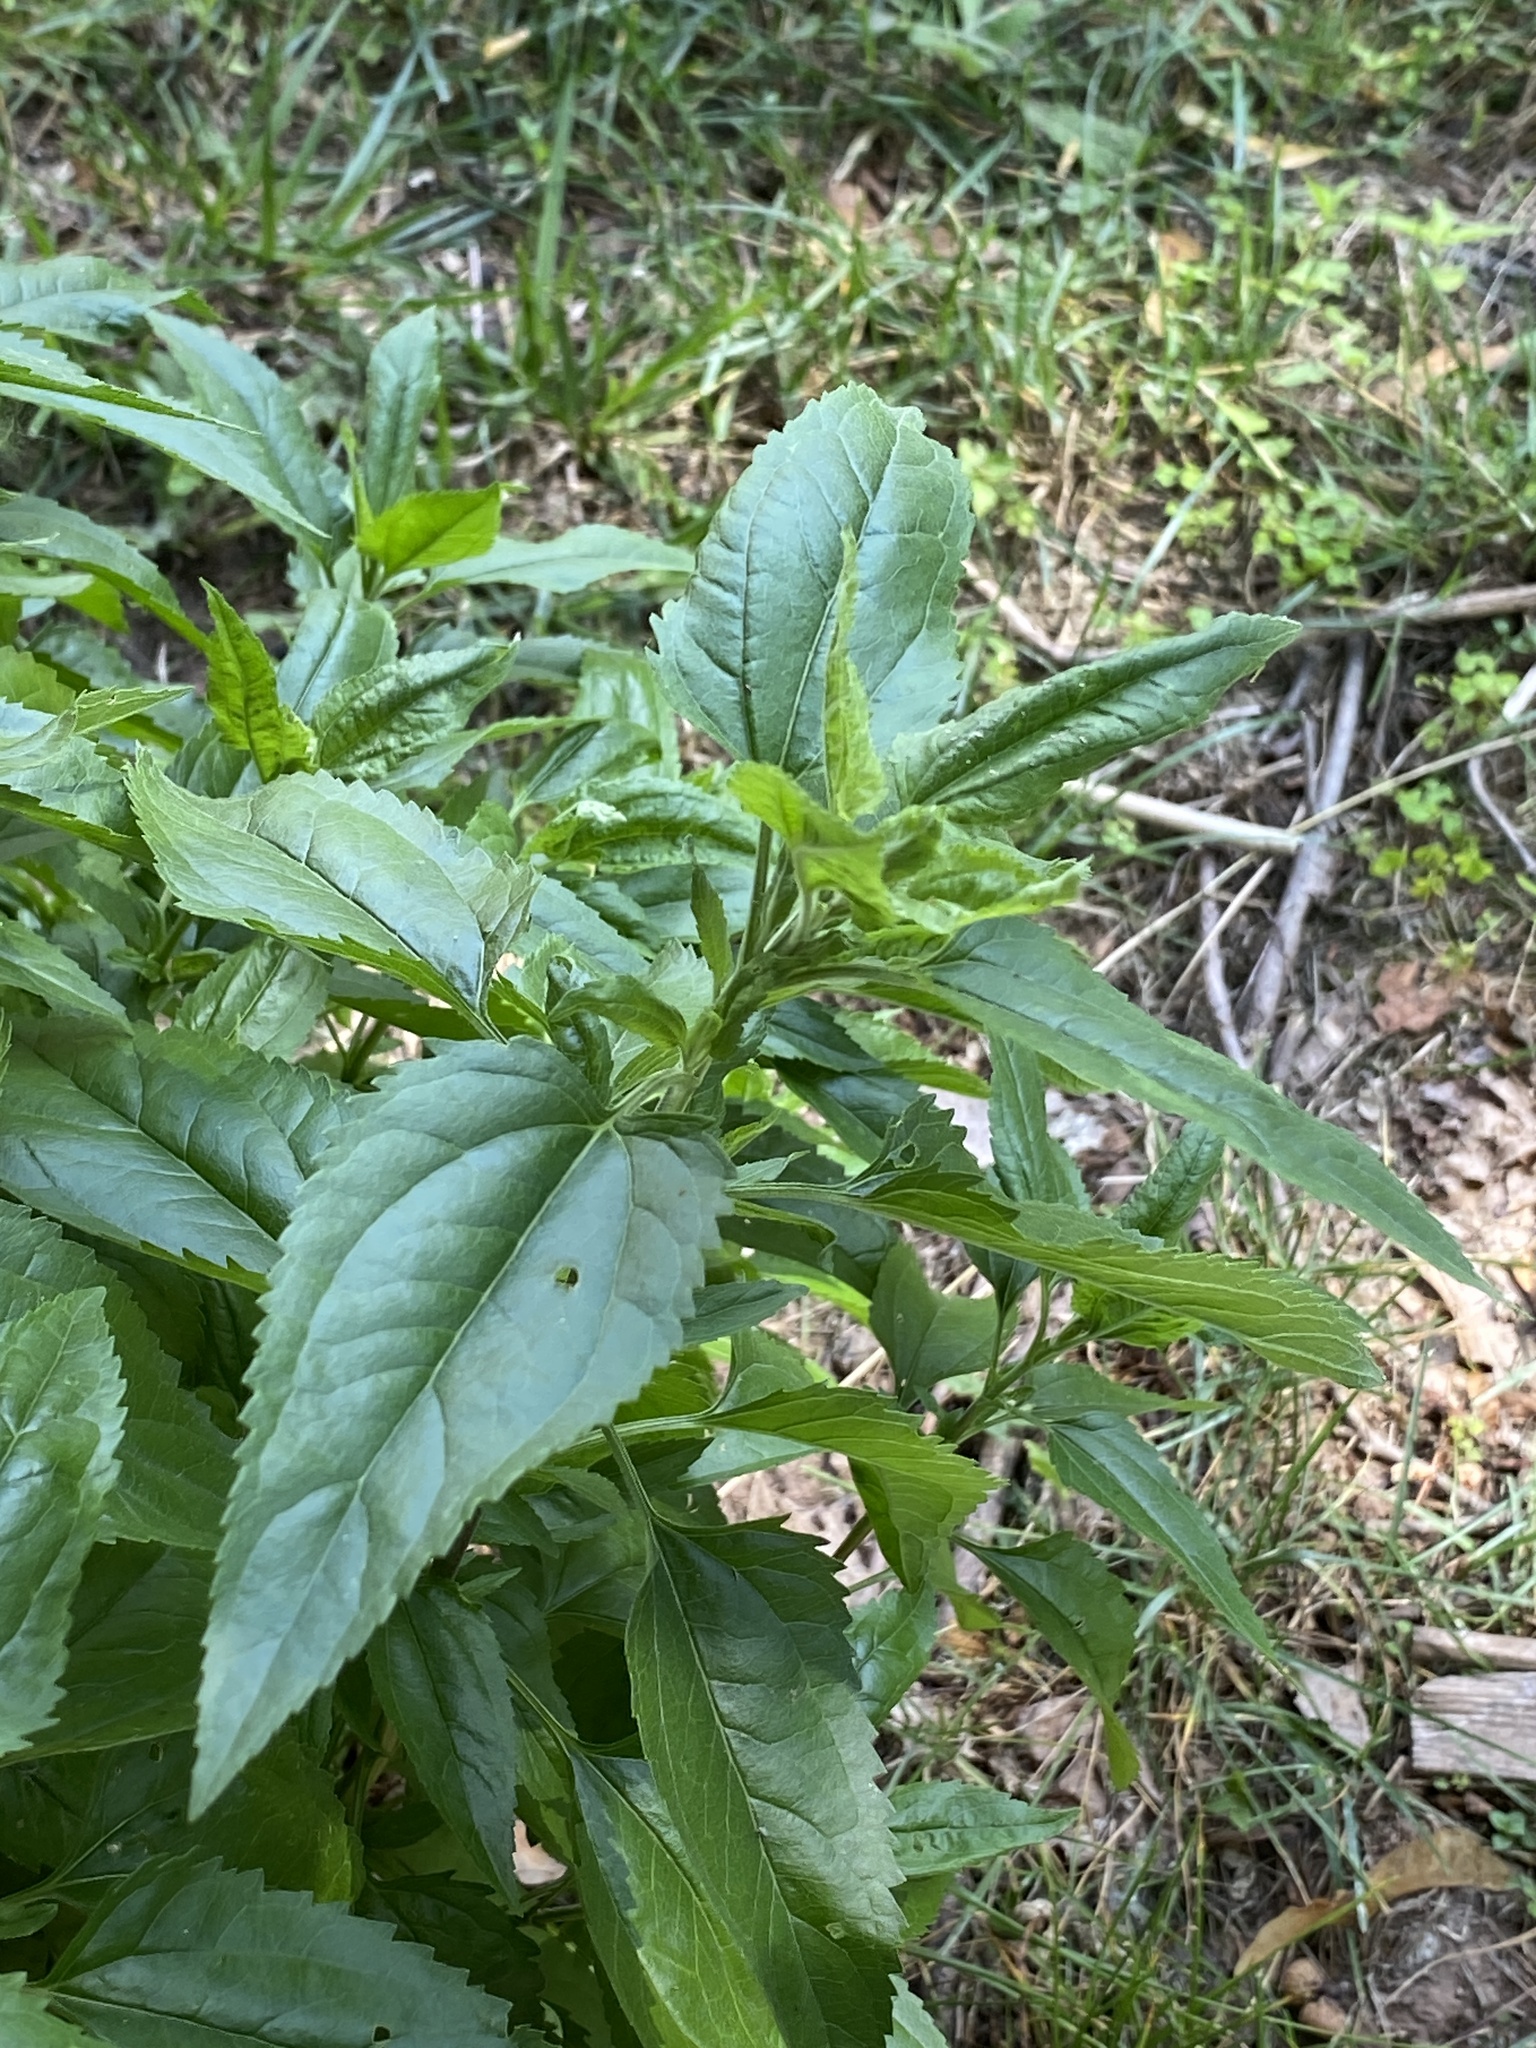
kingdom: Plantae
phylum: Tracheophyta
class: Magnoliopsida
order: Asterales
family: Asteraceae
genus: Eupatorium
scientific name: Eupatorium serotinum
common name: Late boneset
